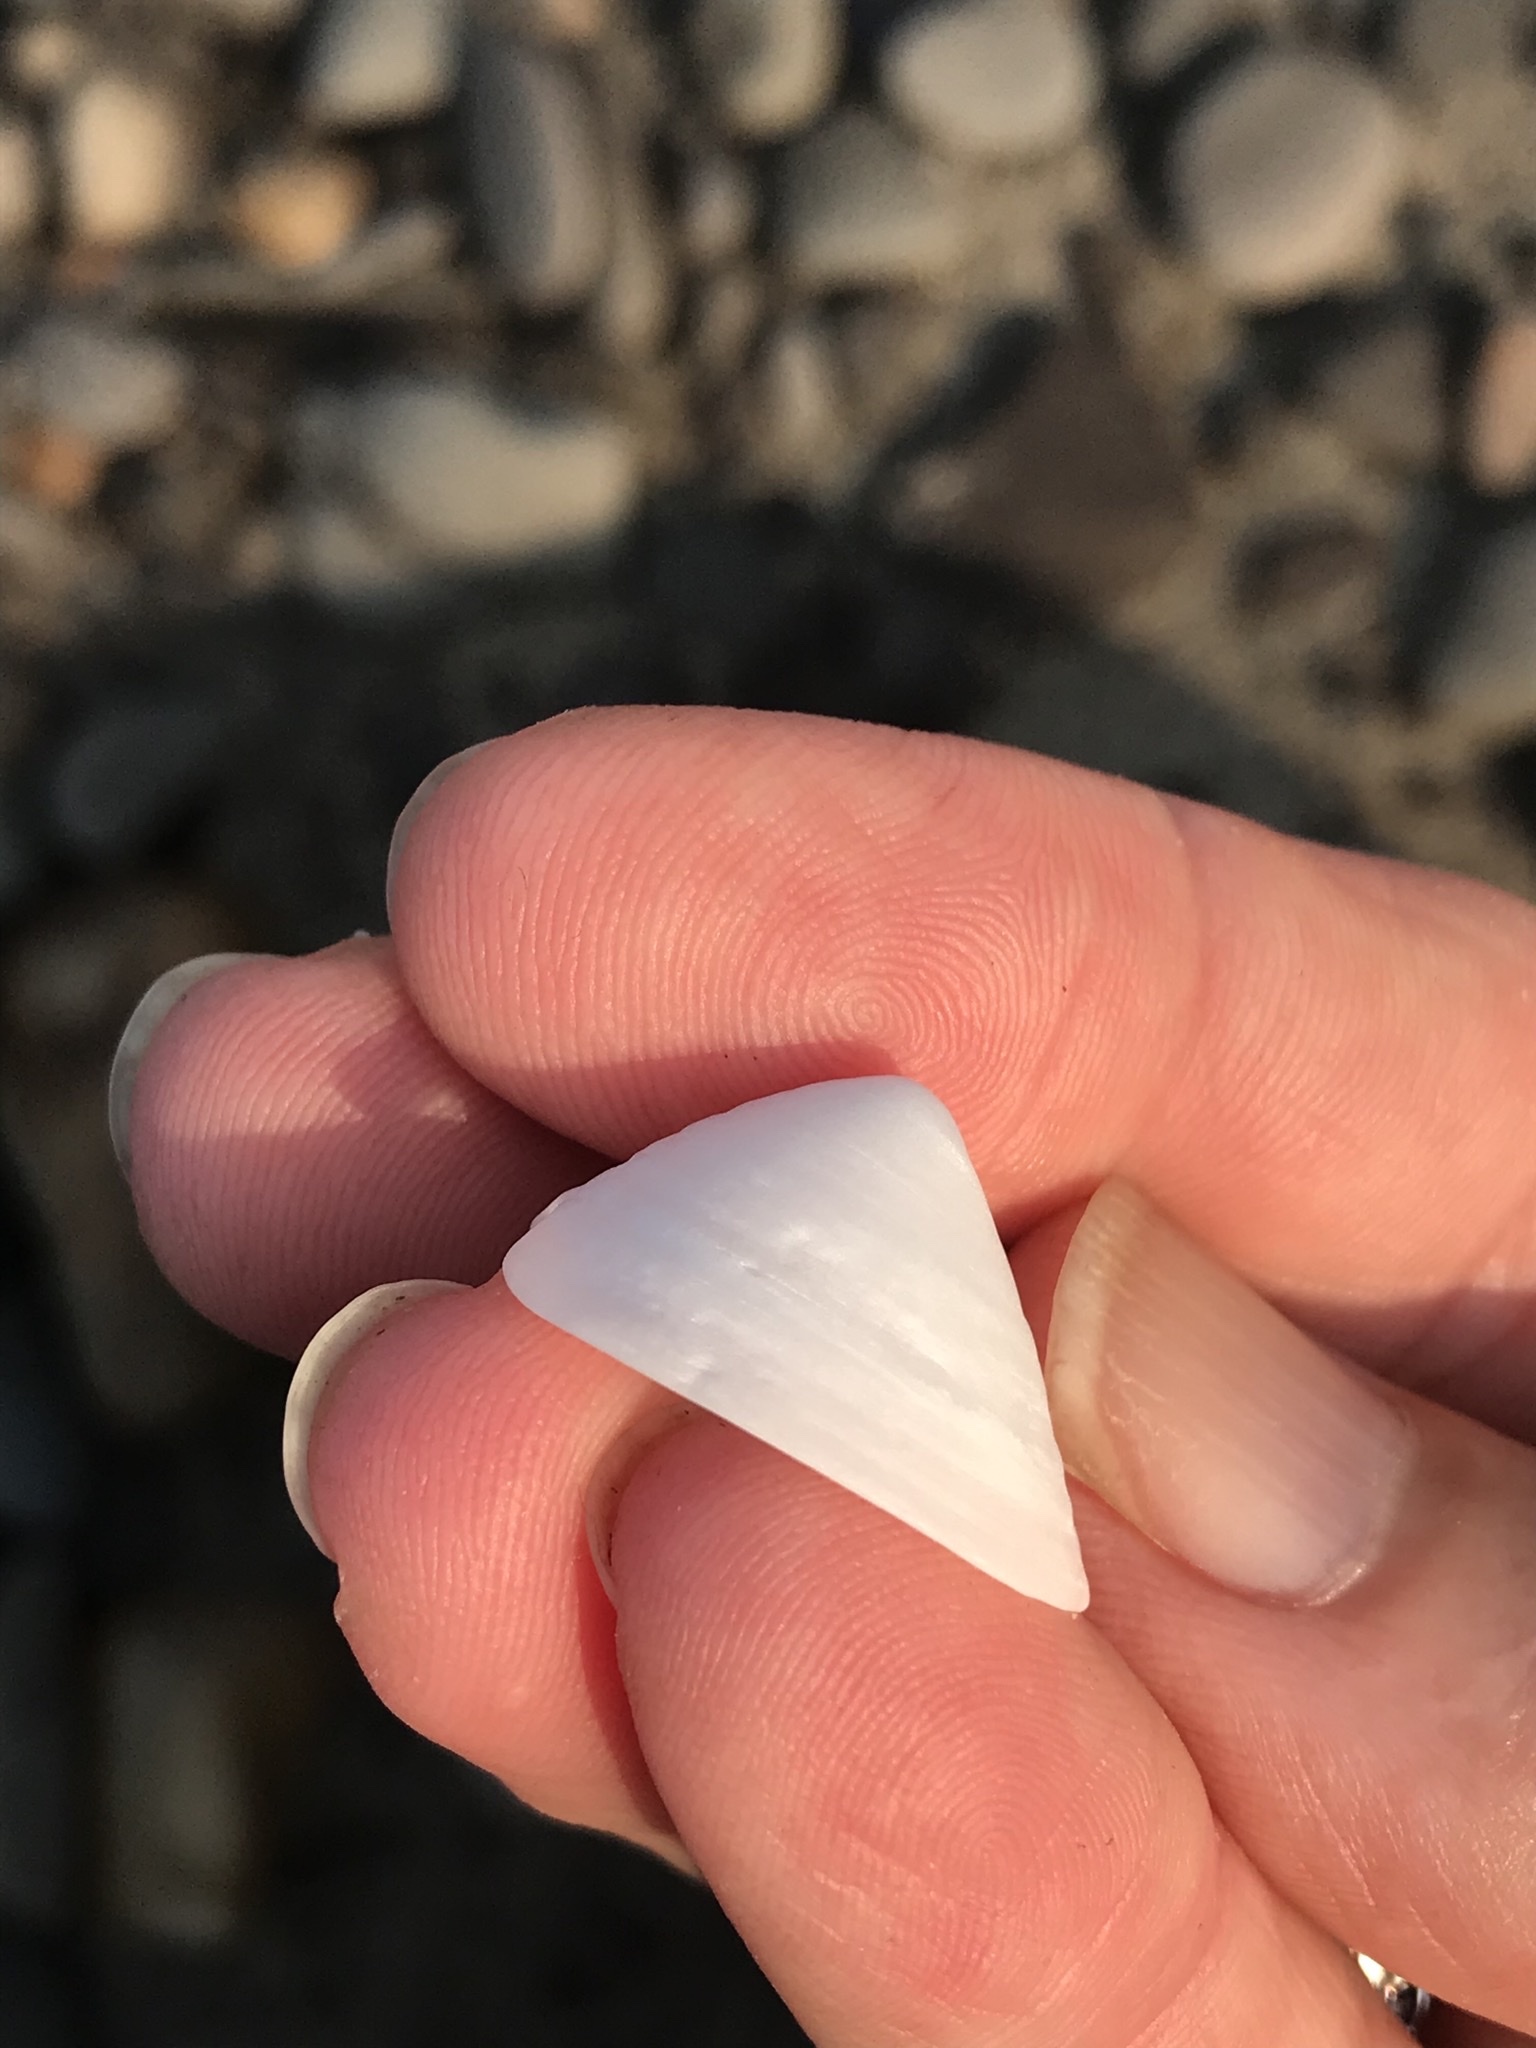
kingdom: Animalia
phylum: Mollusca
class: Gastropoda
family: Acmaeidae
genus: Acmaea
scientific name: Acmaea mitra
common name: Pacific white cap limpet
